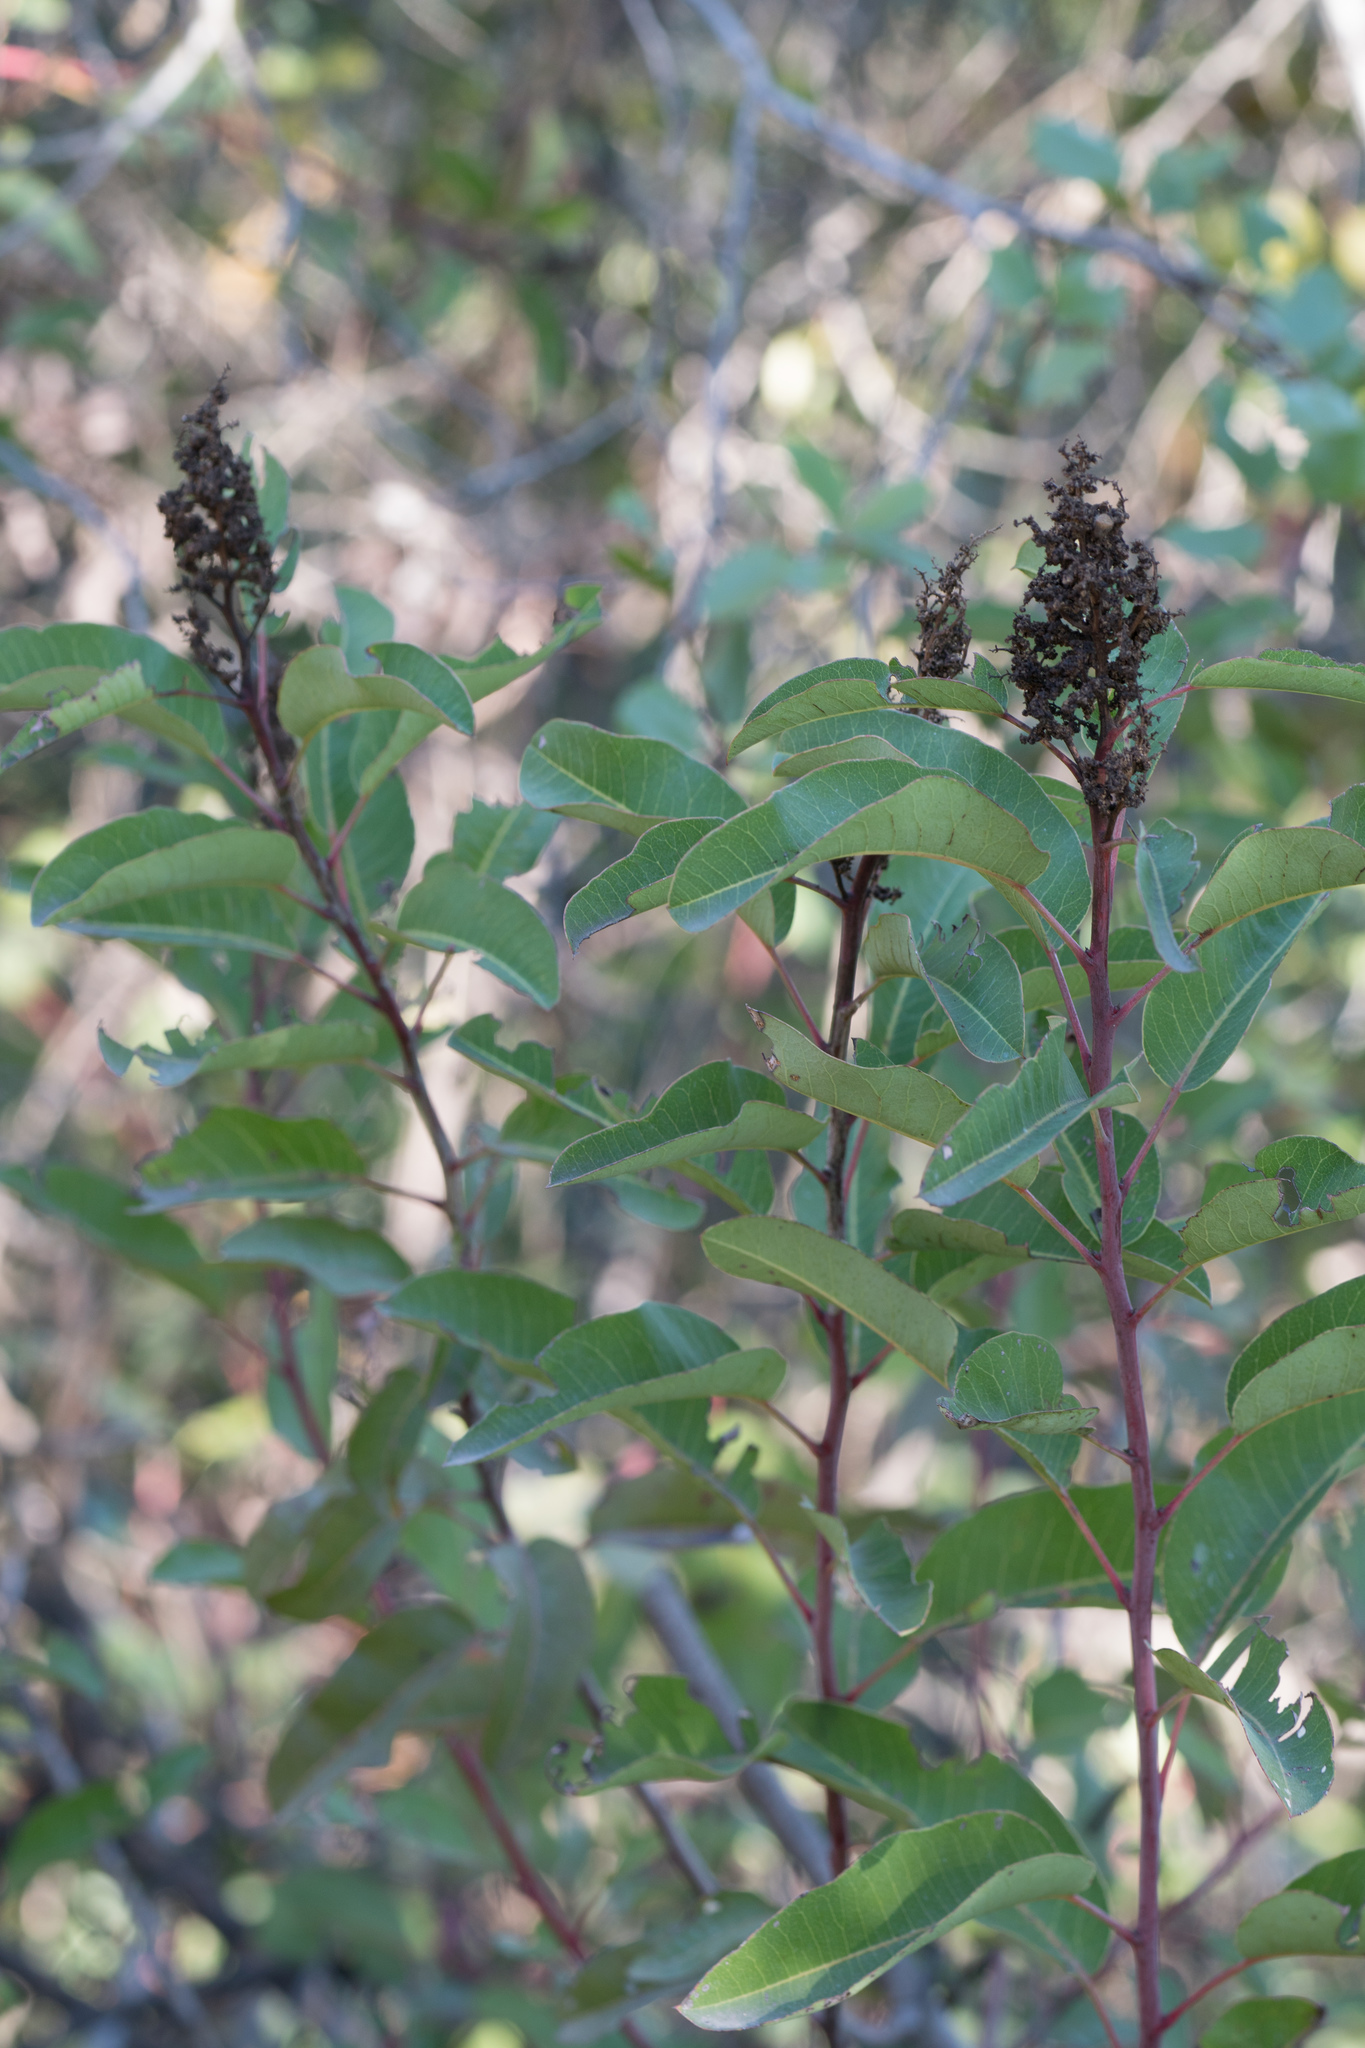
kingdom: Plantae
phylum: Tracheophyta
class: Magnoliopsida
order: Sapindales
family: Anacardiaceae
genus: Malosma
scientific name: Malosma laurina
